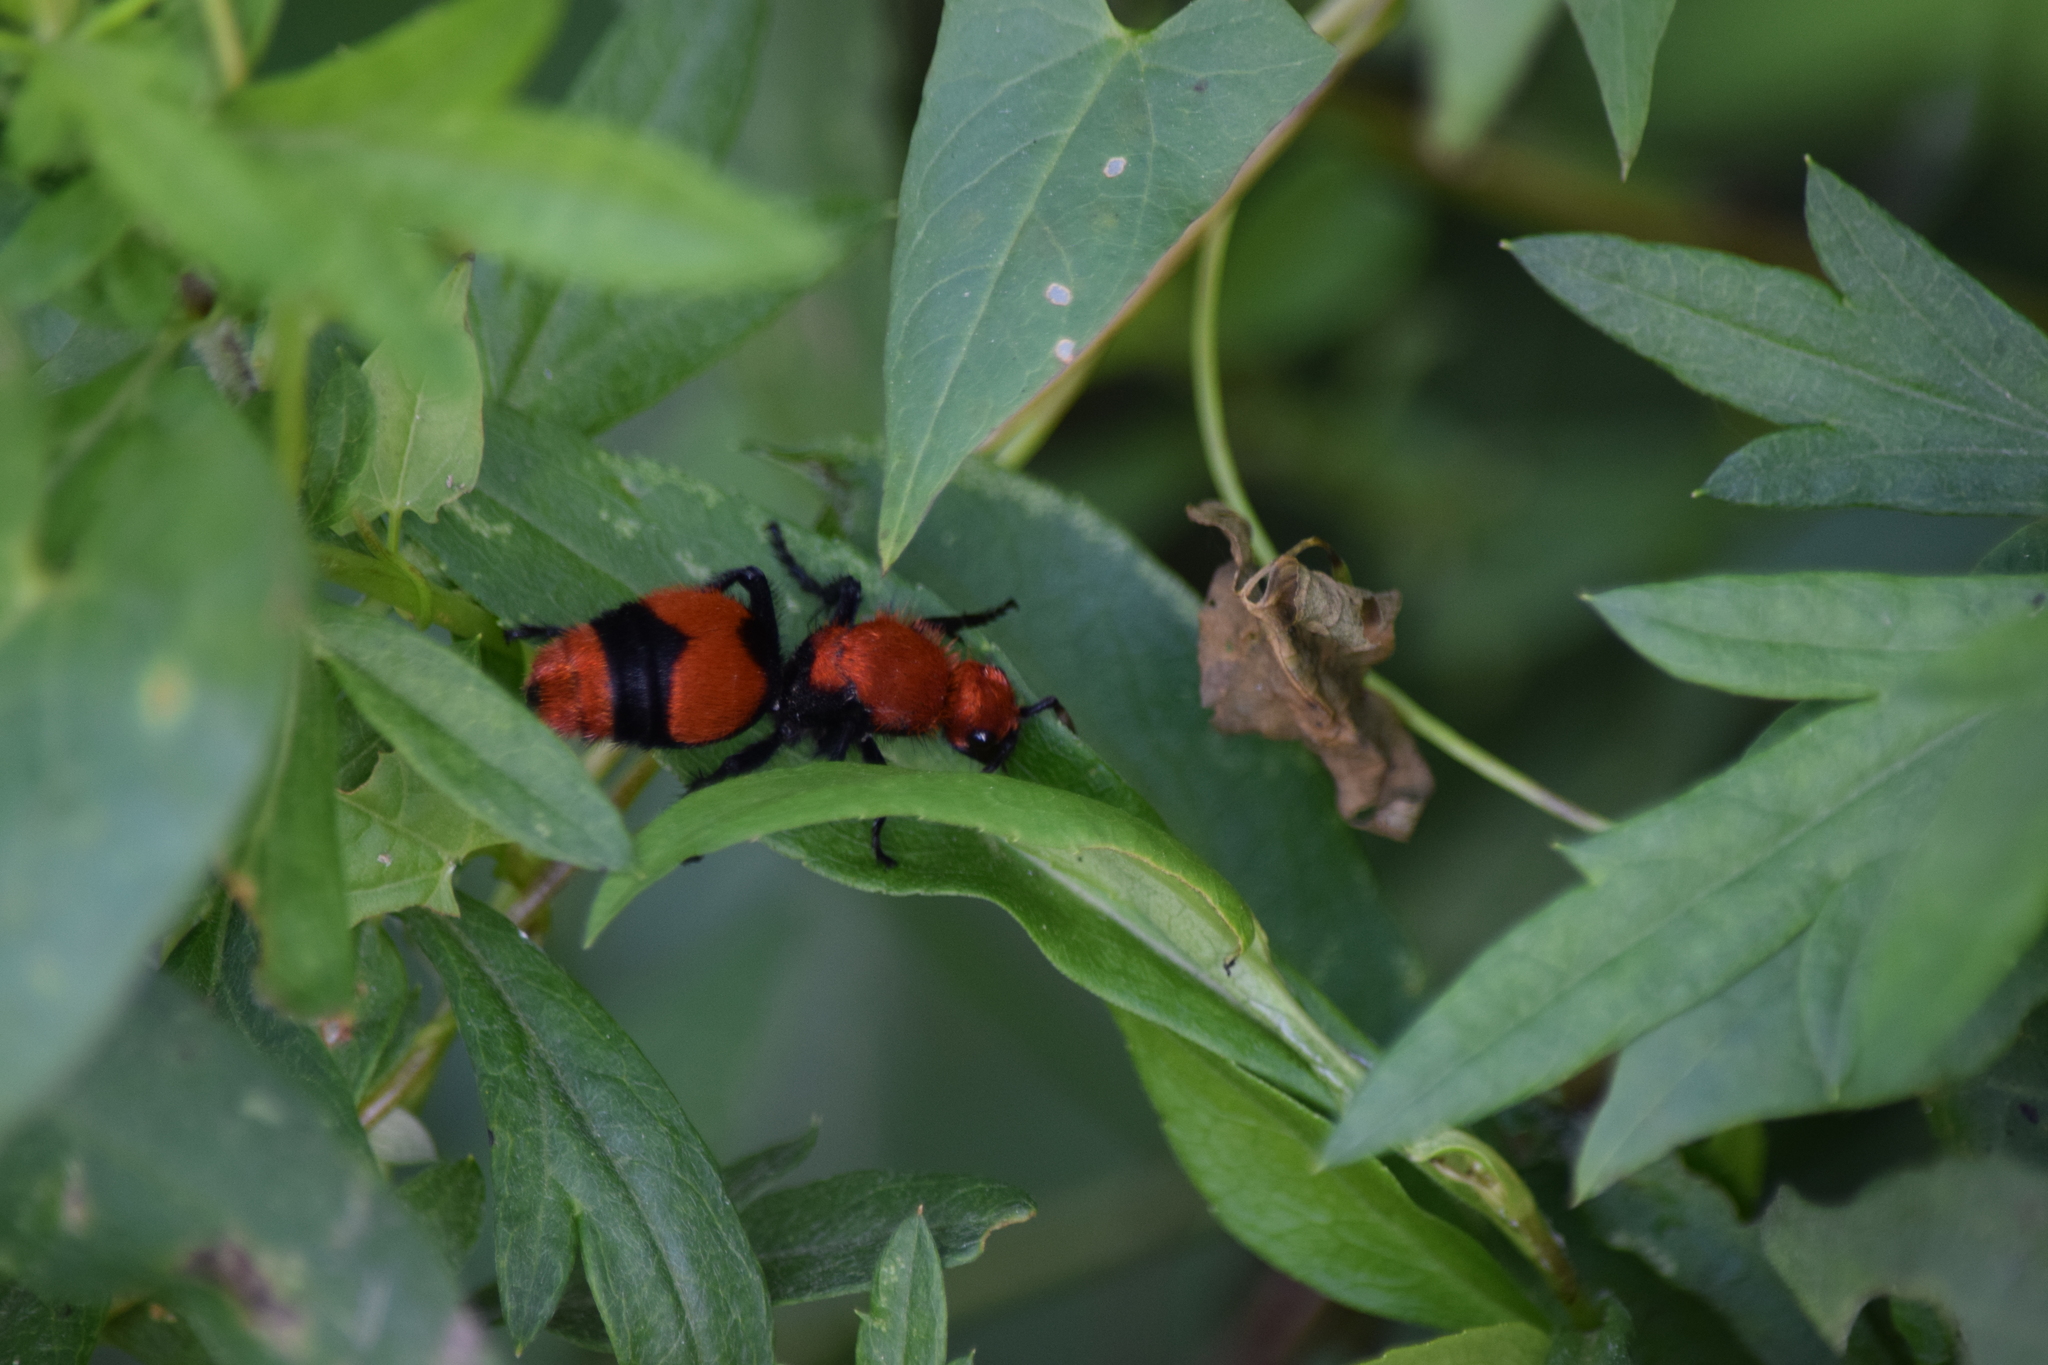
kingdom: Animalia
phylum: Arthropoda
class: Insecta
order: Hymenoptera
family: Mutillidae
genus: Dasymutilla
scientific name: Dasymutilla occidentalis
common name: Common eastern velvet ant
